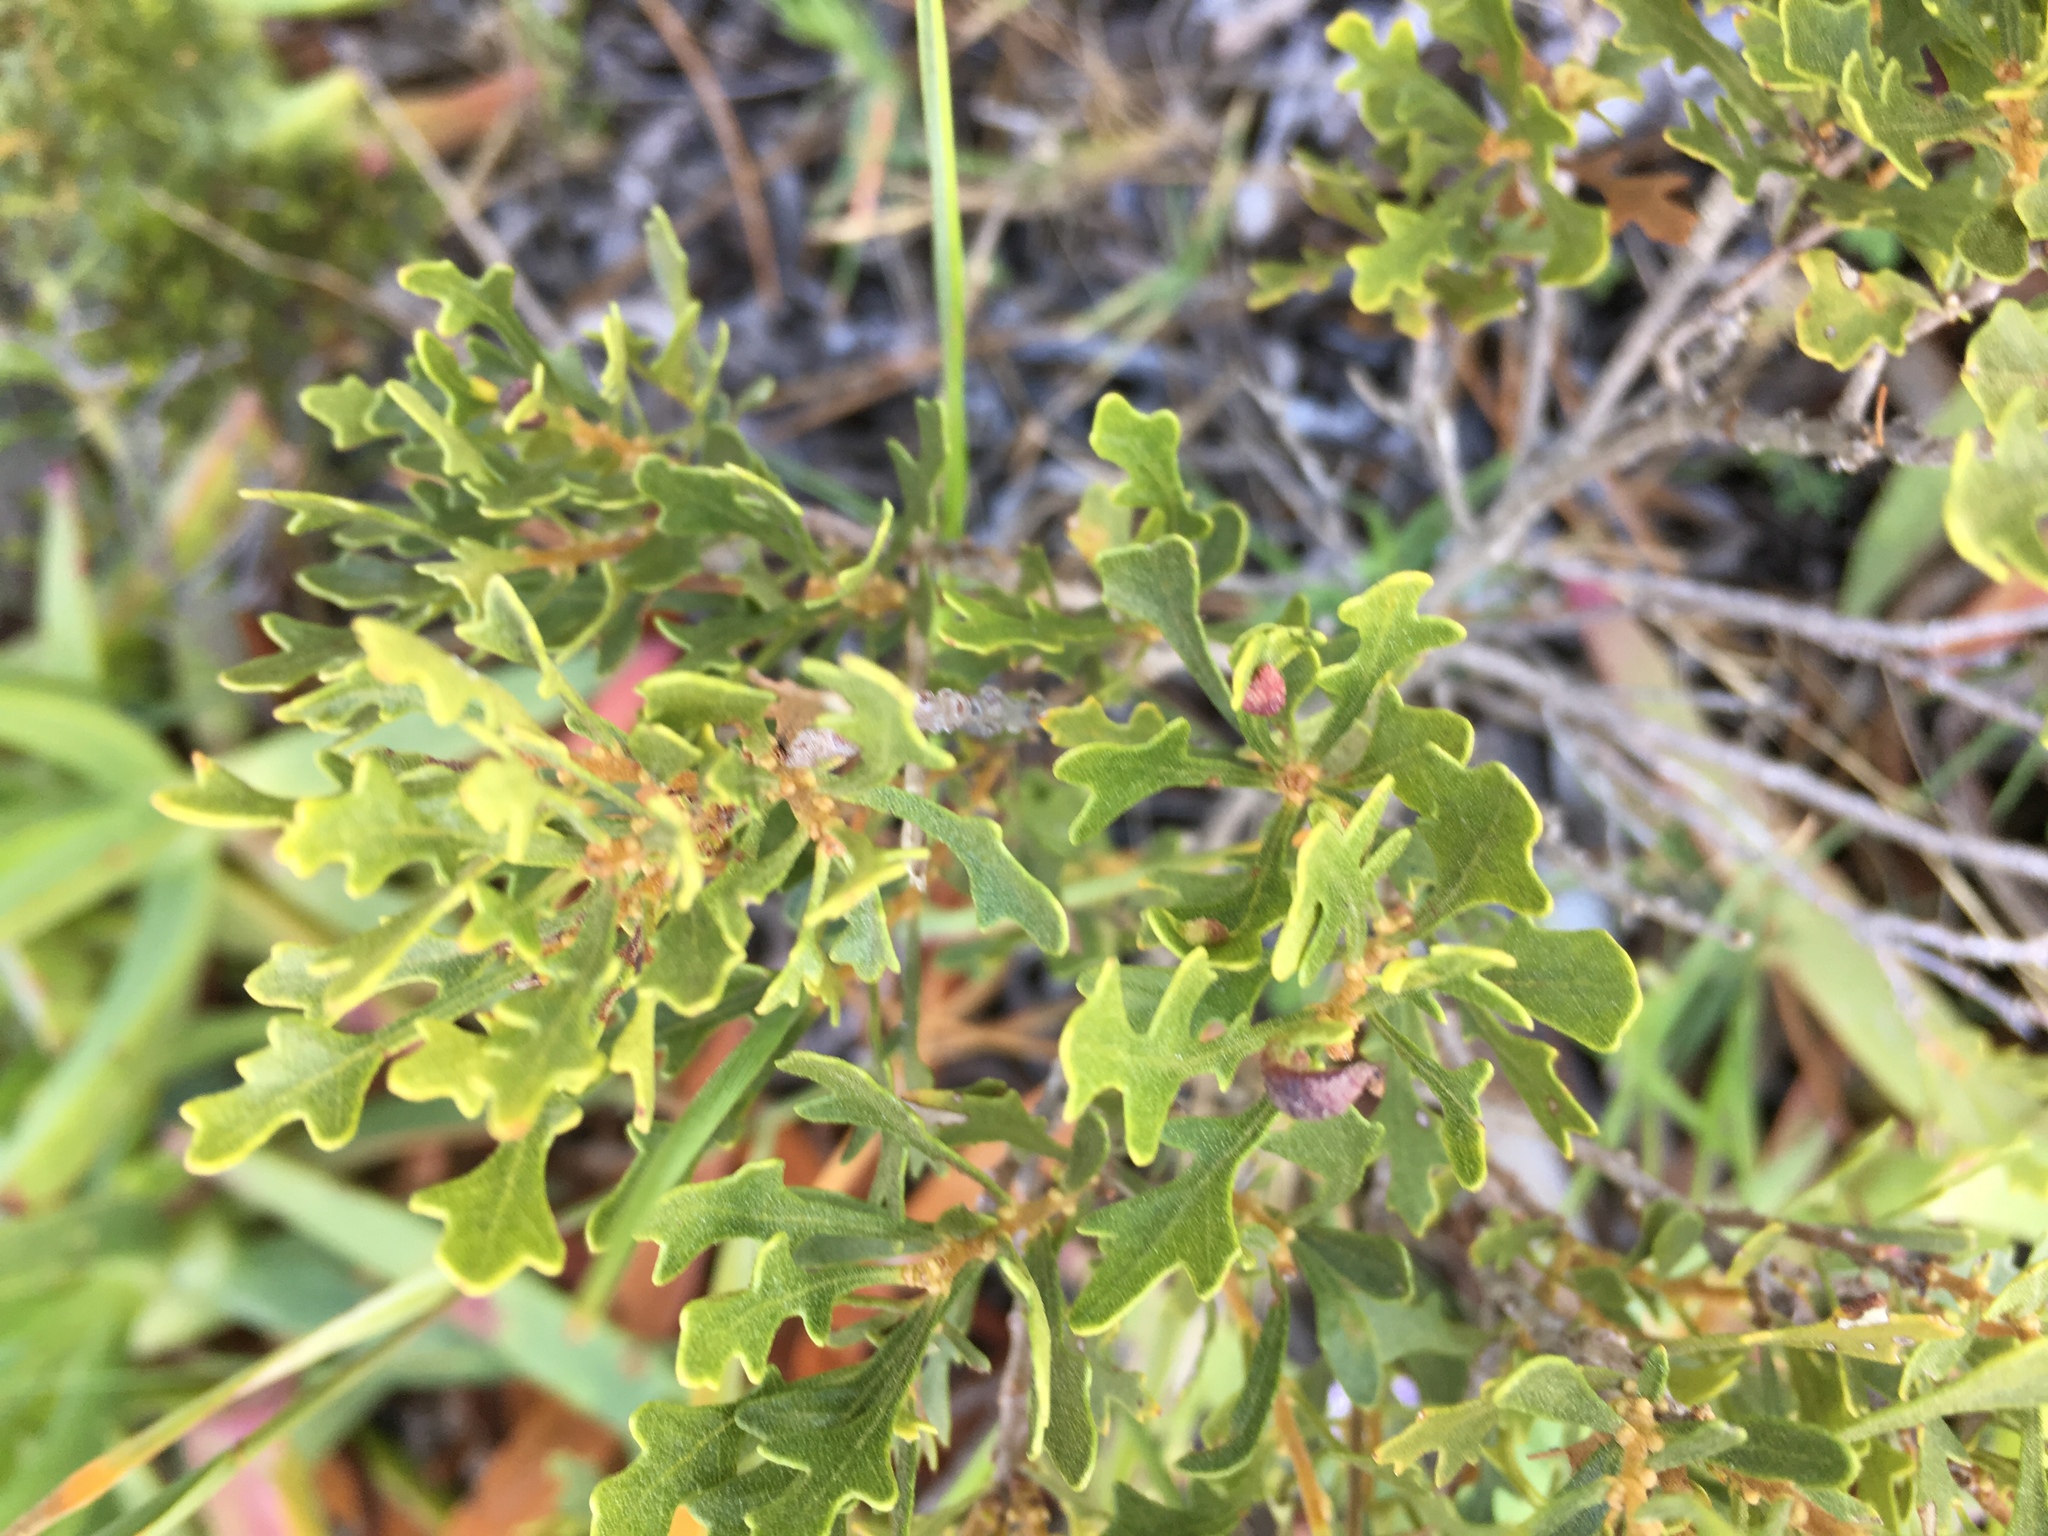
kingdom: Plantae
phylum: Tracheophyta
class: Magnoliopsida
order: Fagales
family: Myricaceae
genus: Morella
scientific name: Morella quercifolia
